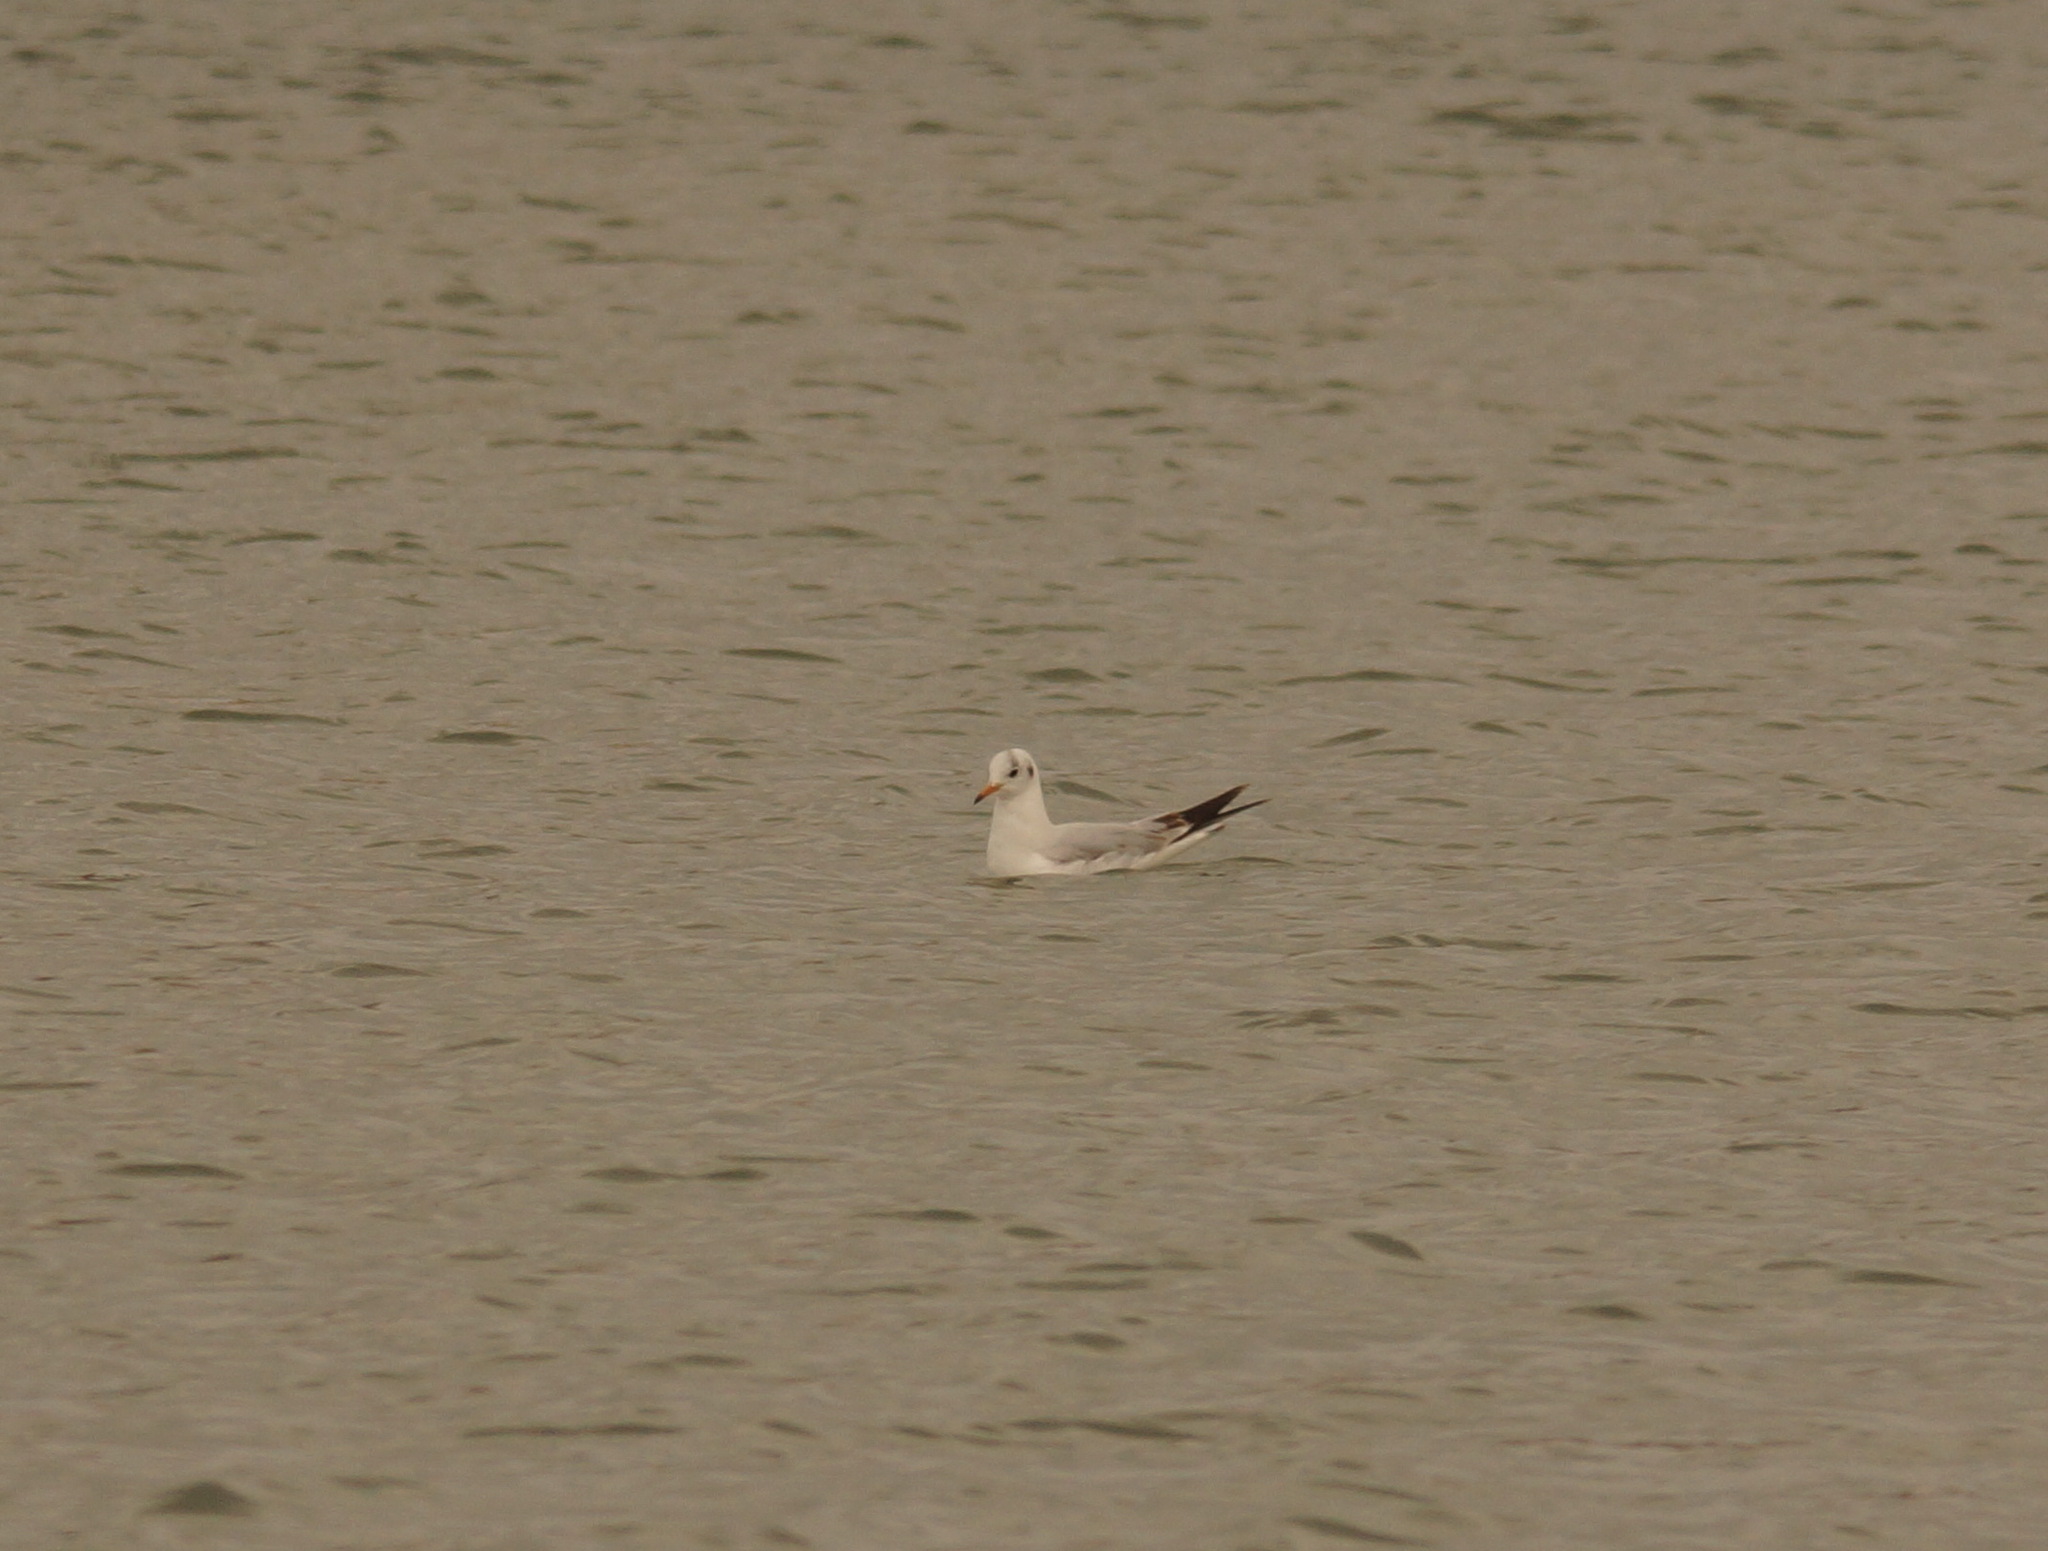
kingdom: Animalia
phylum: Chordata
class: Aves
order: Charadriiformes
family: Laridae
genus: Chroicocephalus
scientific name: Chroicocephalus ridibundus
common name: Black-headed gull
